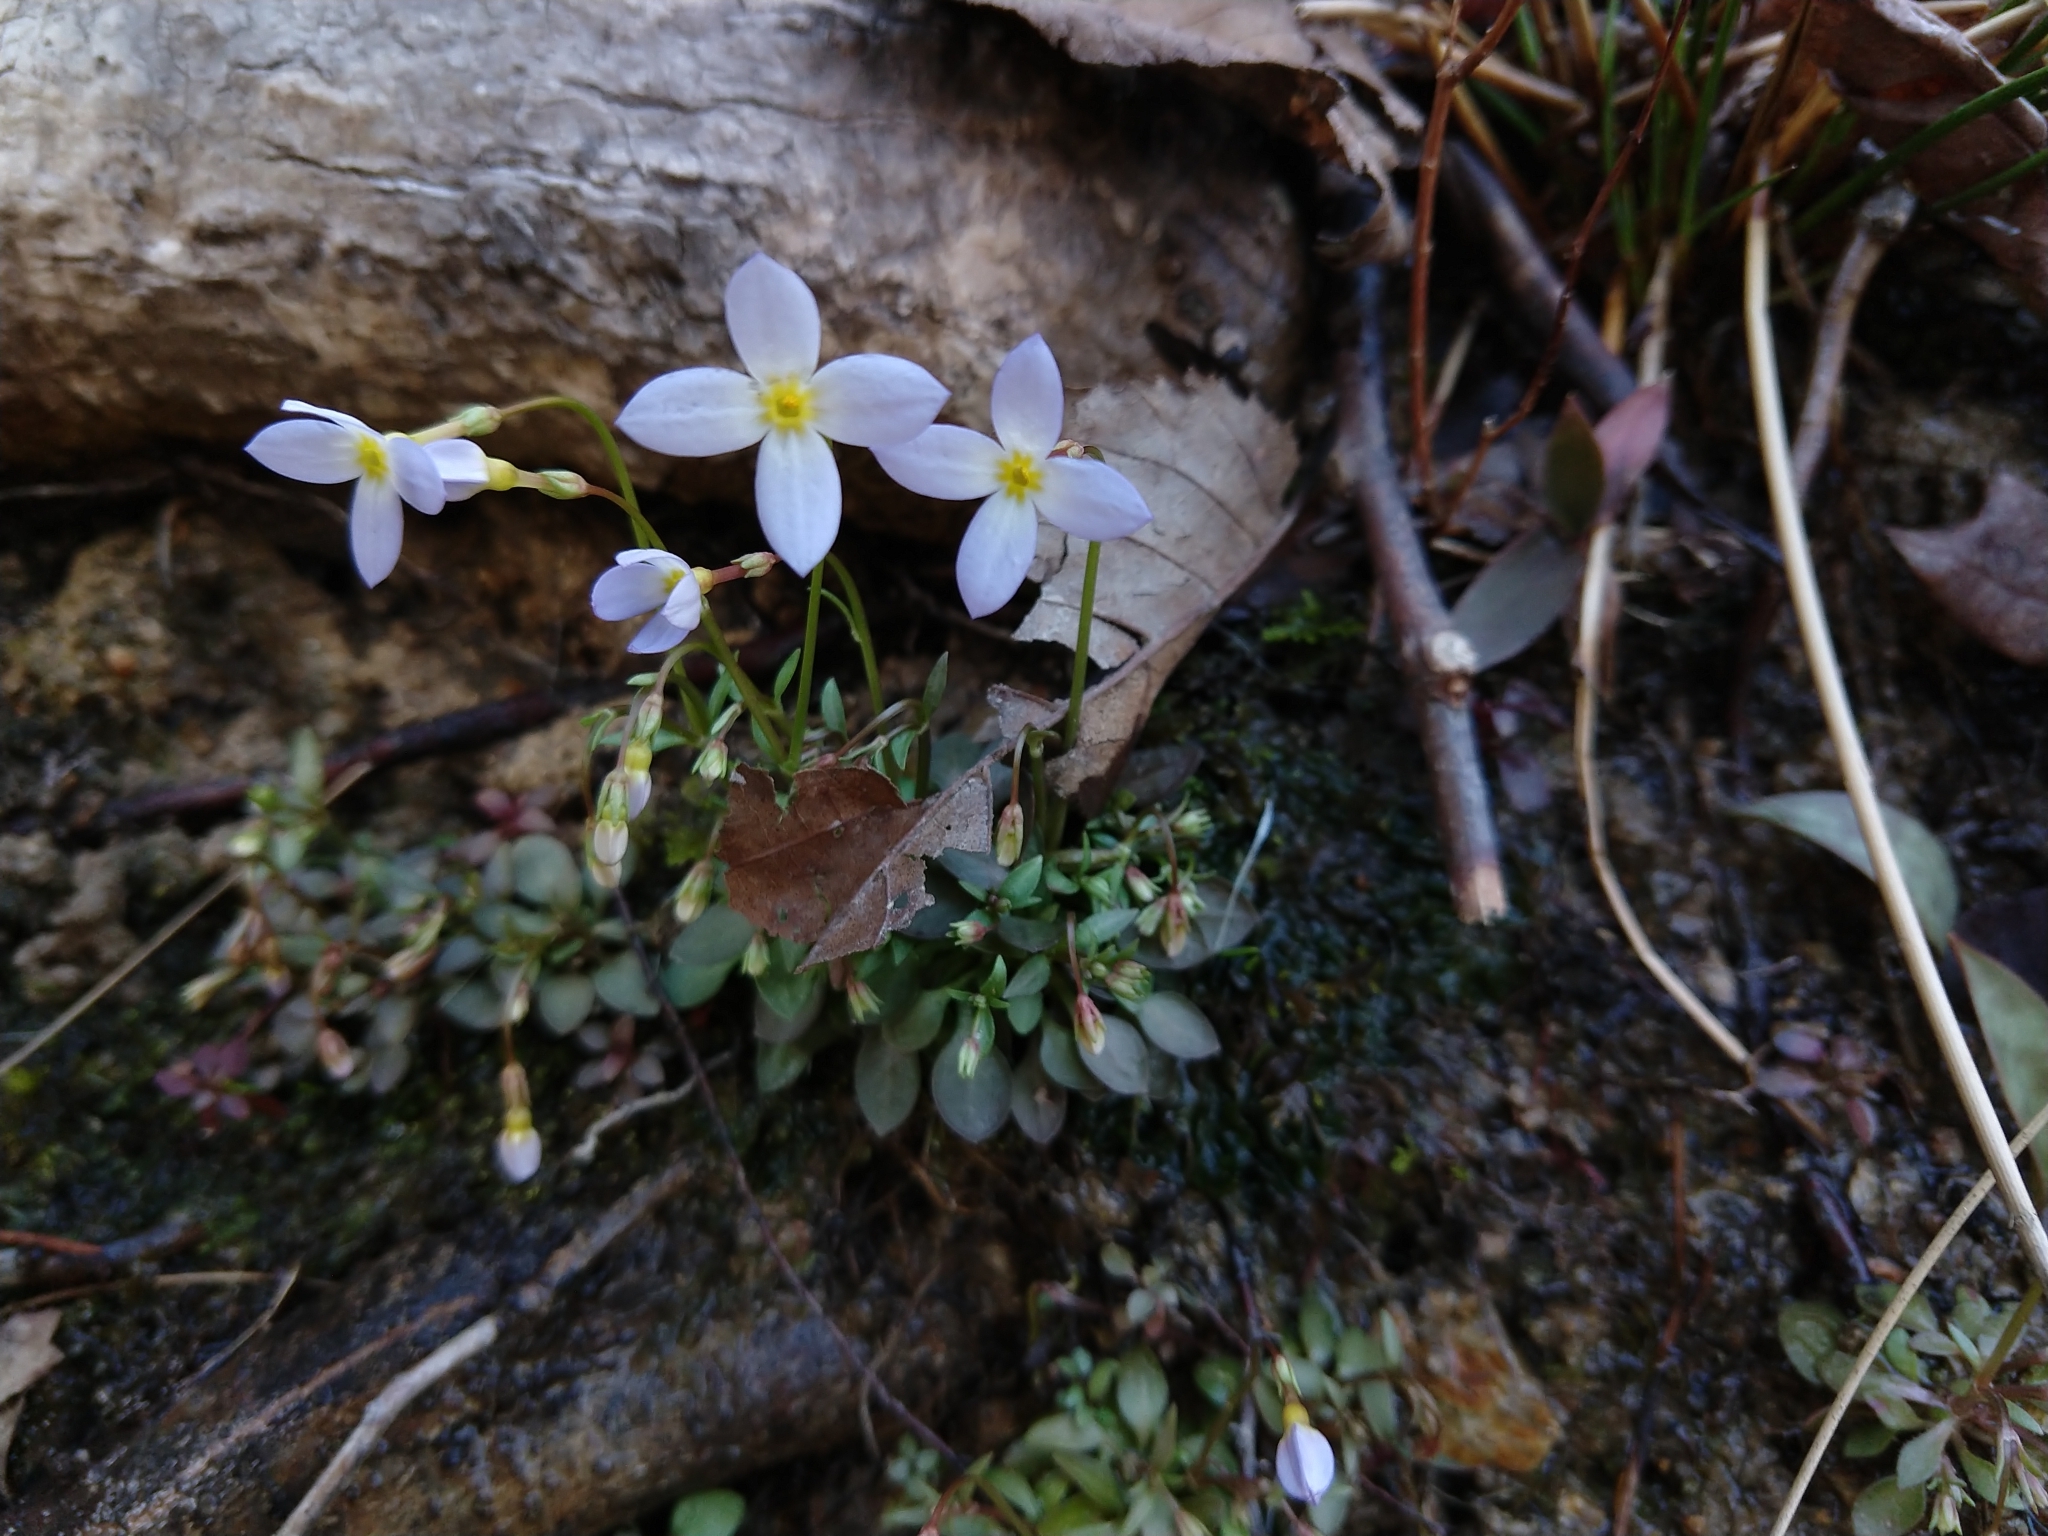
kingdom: Plantae
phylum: Tracheophyta
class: Magnoliopsida
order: Gentianales
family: Rubiaceae
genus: Houstonia
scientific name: Houstonia caerulea
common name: Bluets
